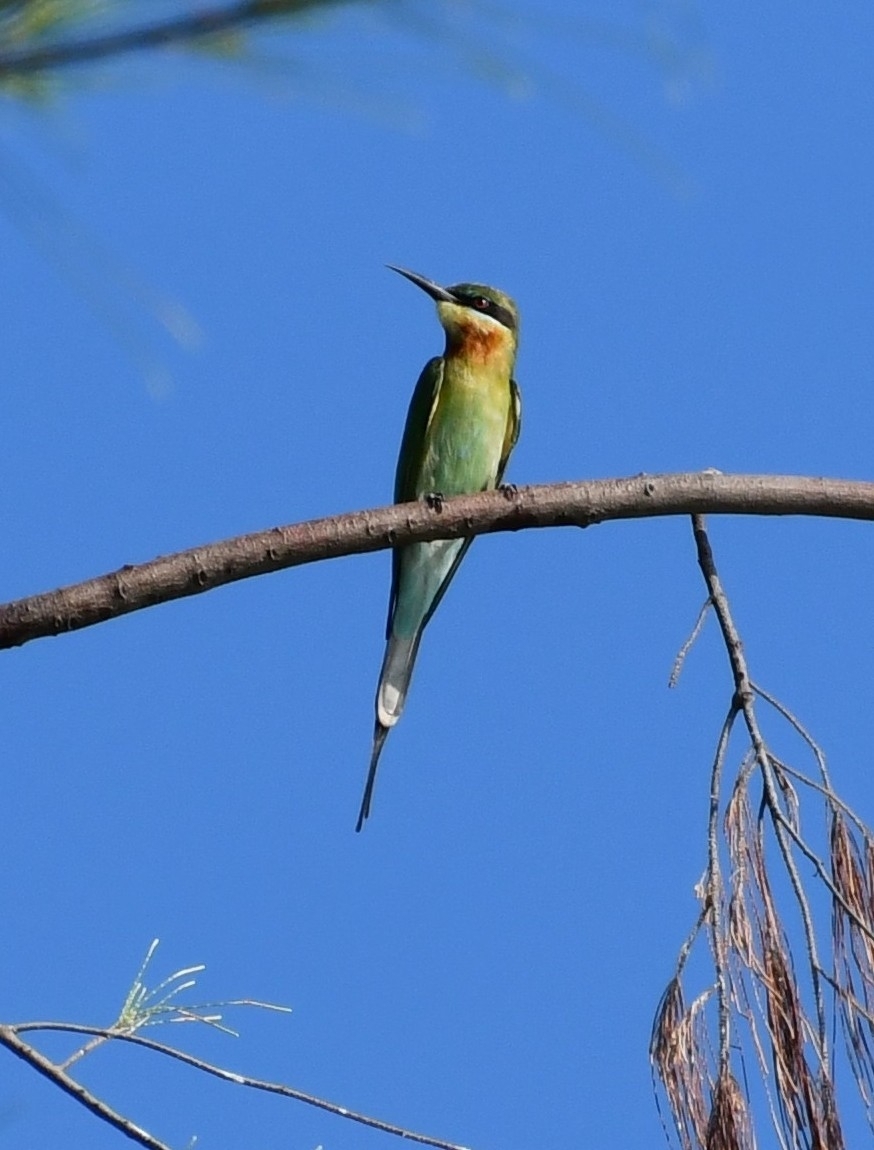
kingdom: Animalia
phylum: Chordata
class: Aves
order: Coraciiformes
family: Meropidae
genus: Merops
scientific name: Merops philippinus
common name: Blue-tailed bee-eater
